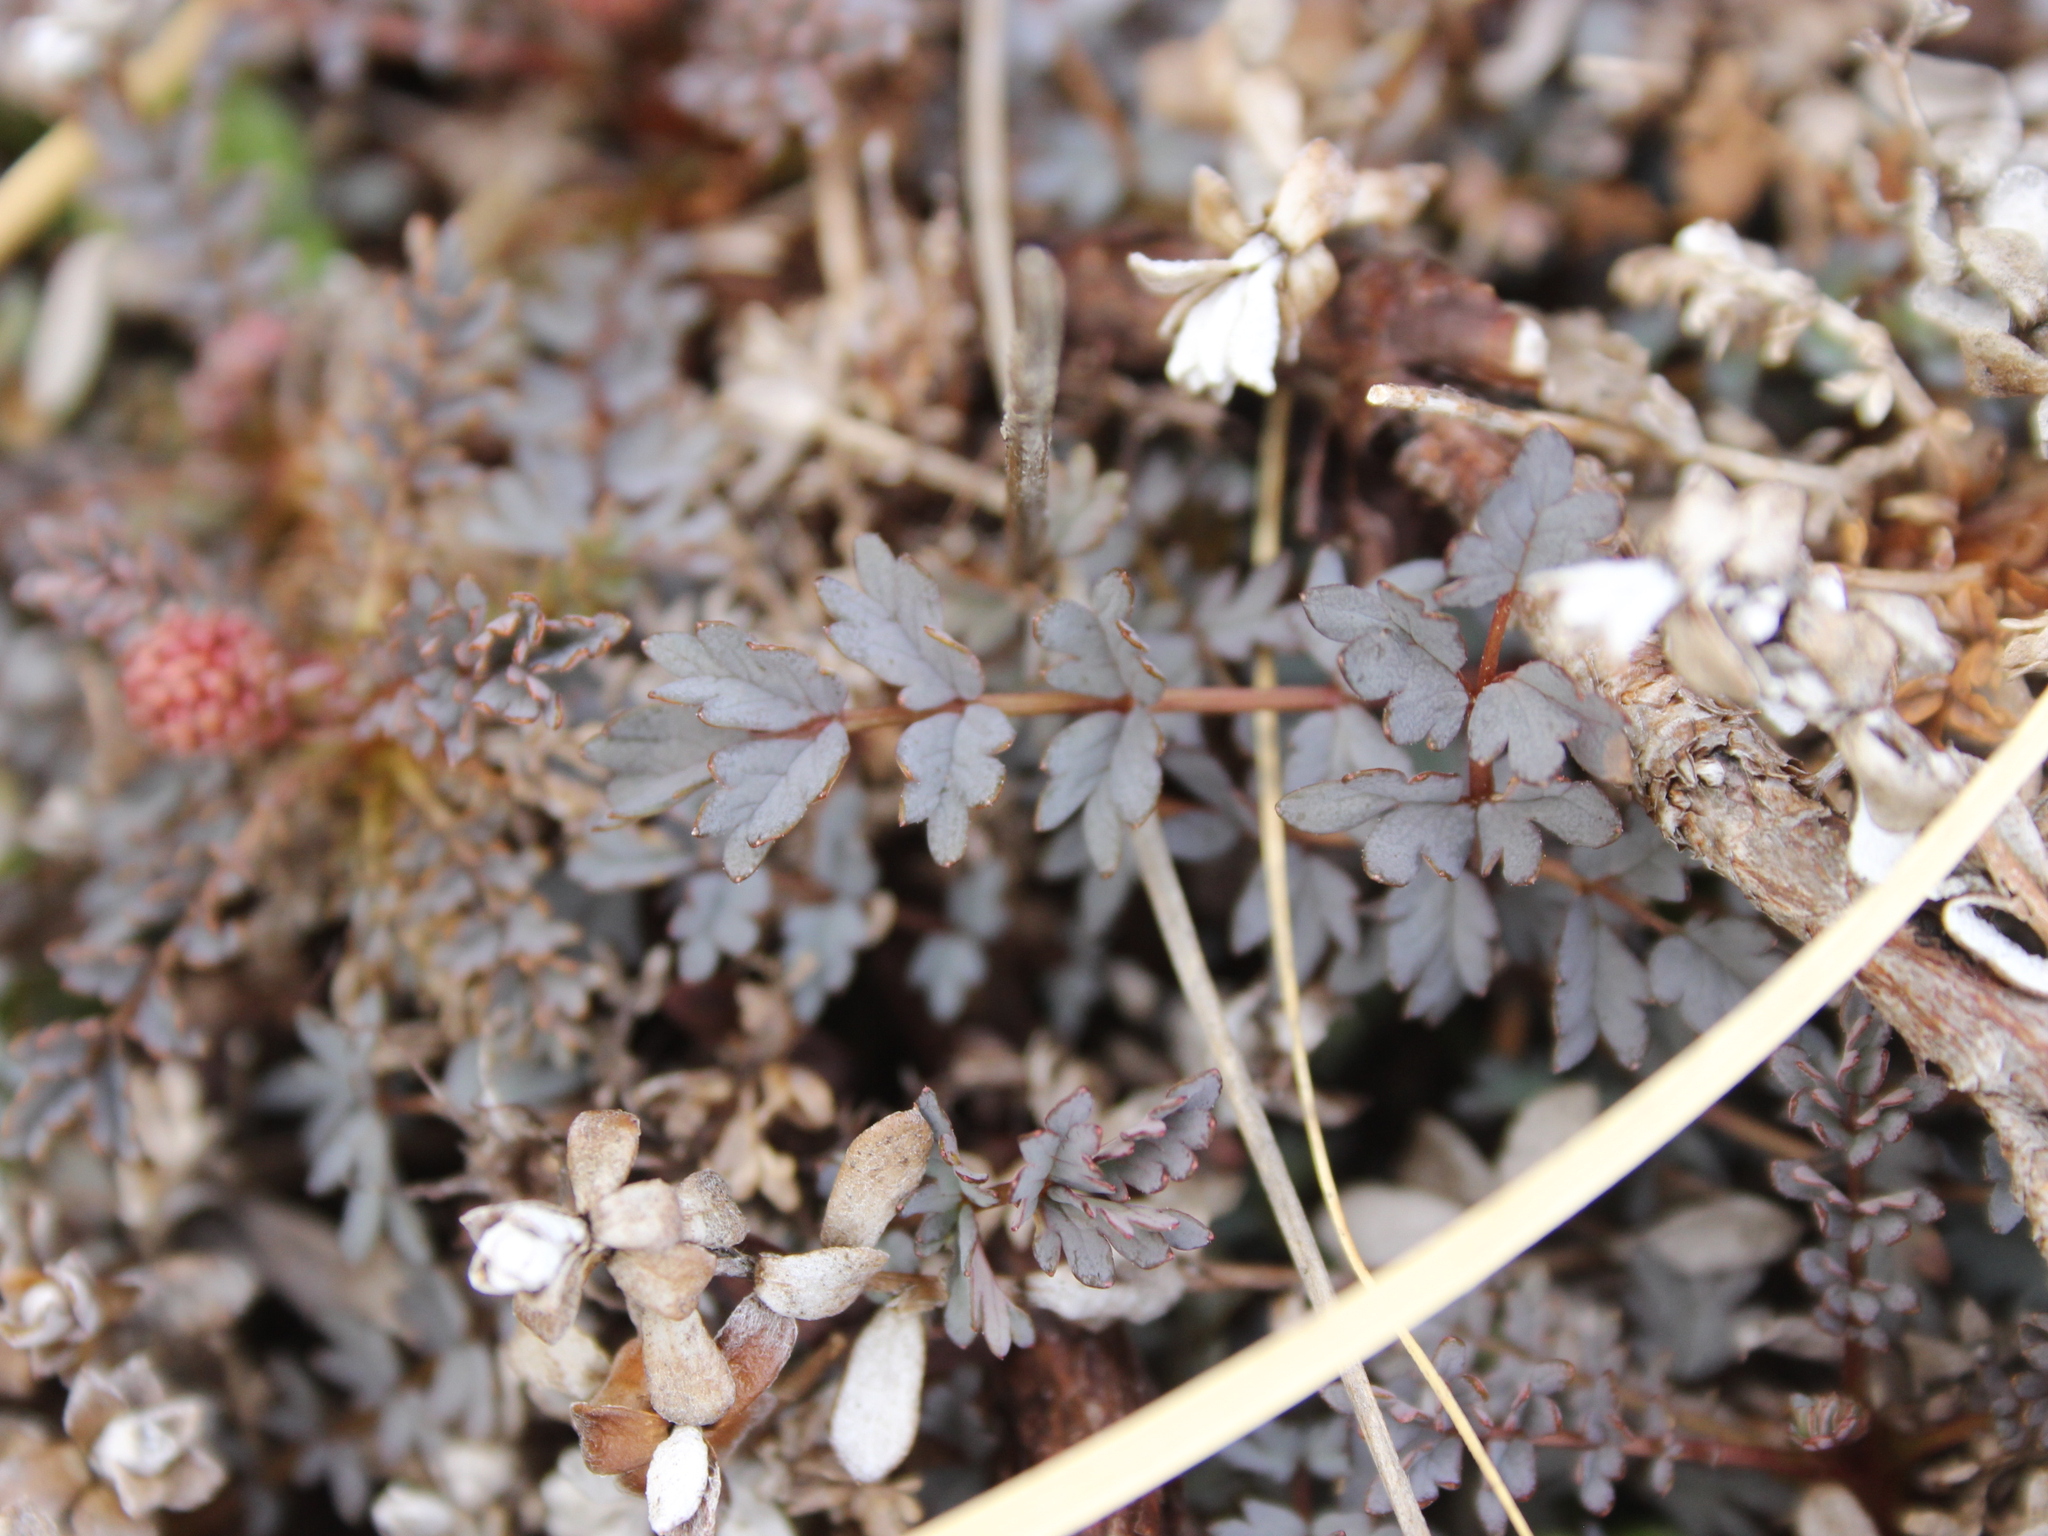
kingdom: Plantae
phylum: Tracheophyta
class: Magnoliopsida
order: Rosales
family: Rosaceae
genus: Acaena
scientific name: Acaena caesiiglauca
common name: Glaucous pirri-pirri-bur
